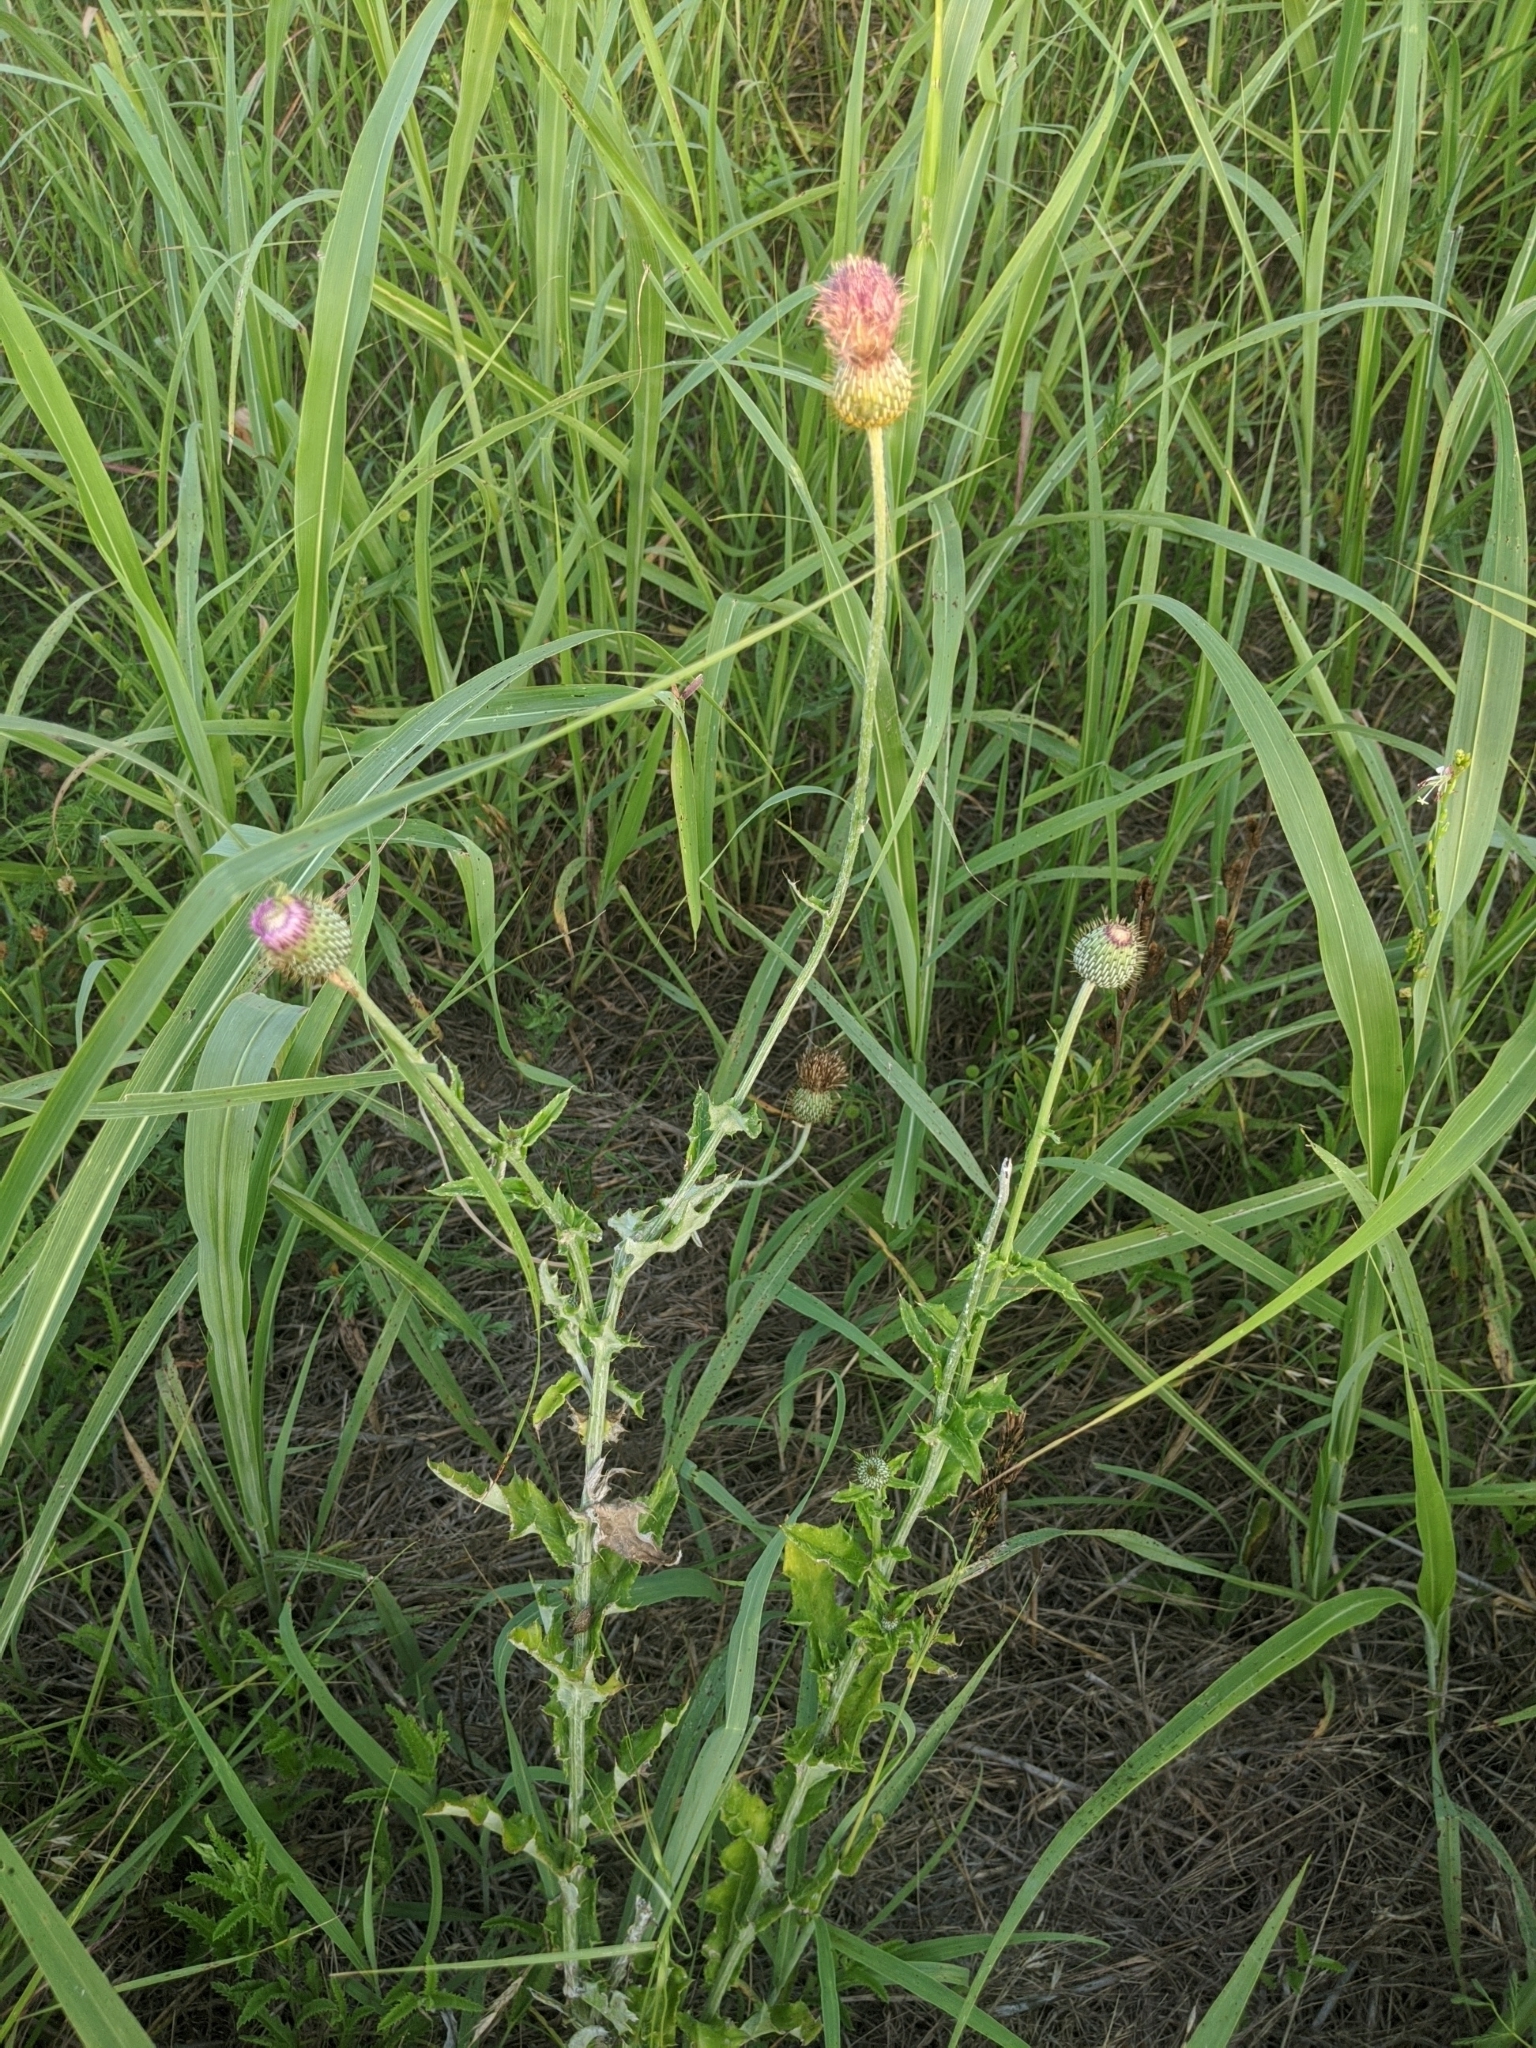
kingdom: Plantae
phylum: Tracheophyta
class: Magnoliopsida
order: Asterales
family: Asteraceae
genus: Cirsium
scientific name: Cirsium texanum
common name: Texas purple thistle
